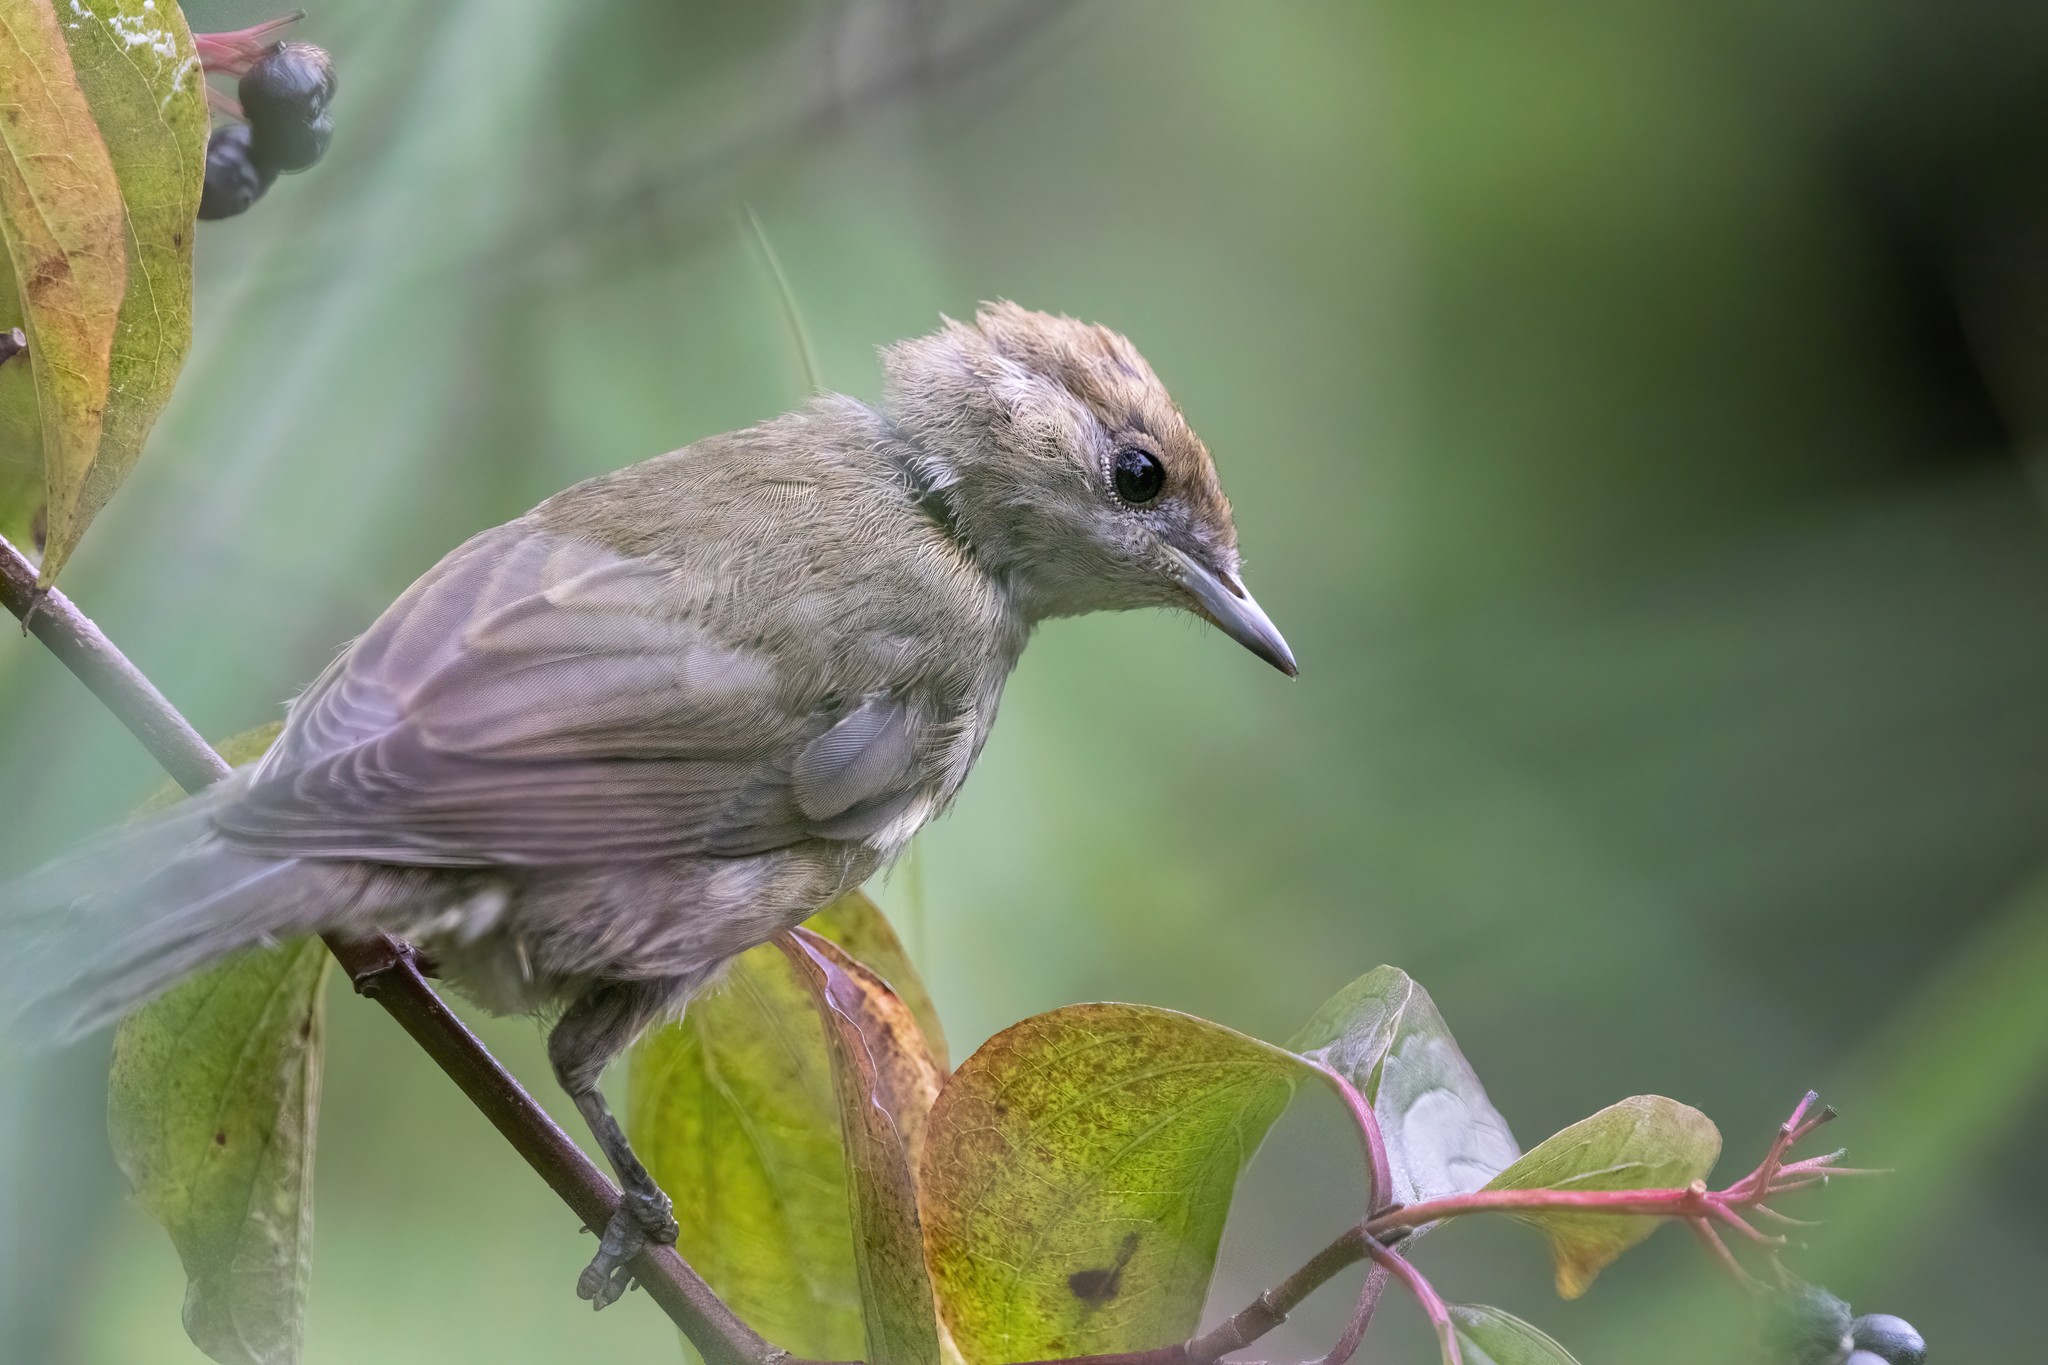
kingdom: Animalia
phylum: Chordata
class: Aves
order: Passeriformes
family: Sylviidae
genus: Sylvia
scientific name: Sylvia atricapilla
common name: Eurasian blackcap
